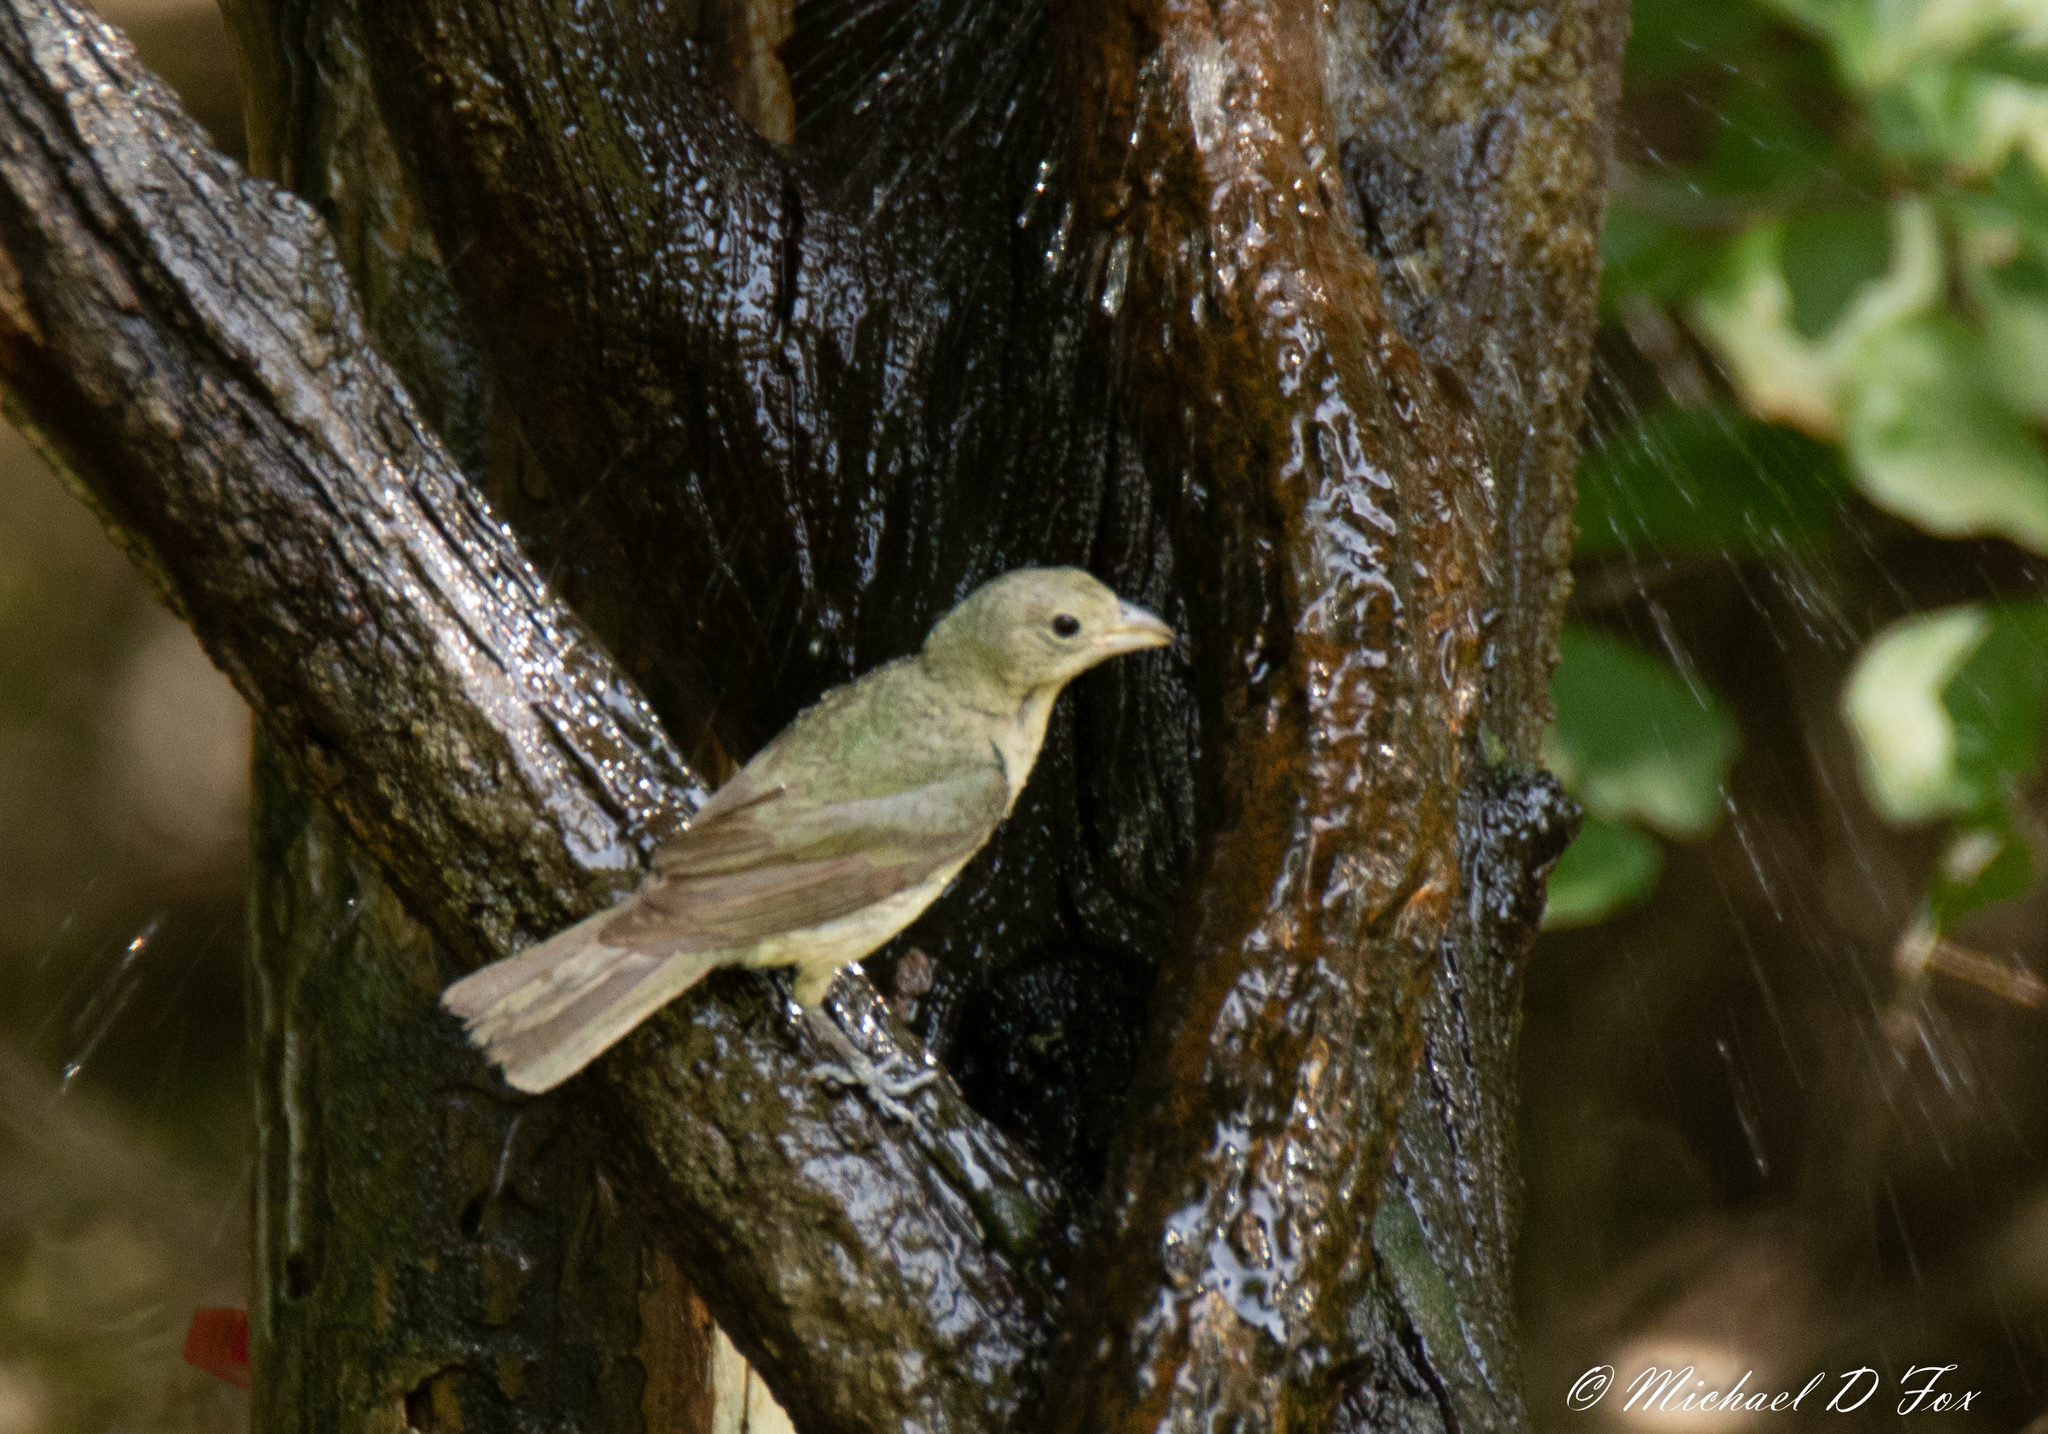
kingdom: Animalia
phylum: Chordata
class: Aves
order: Passeriformes
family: Cardinalidae
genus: Passerina
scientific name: Passerina ciris
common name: Painted bunting
